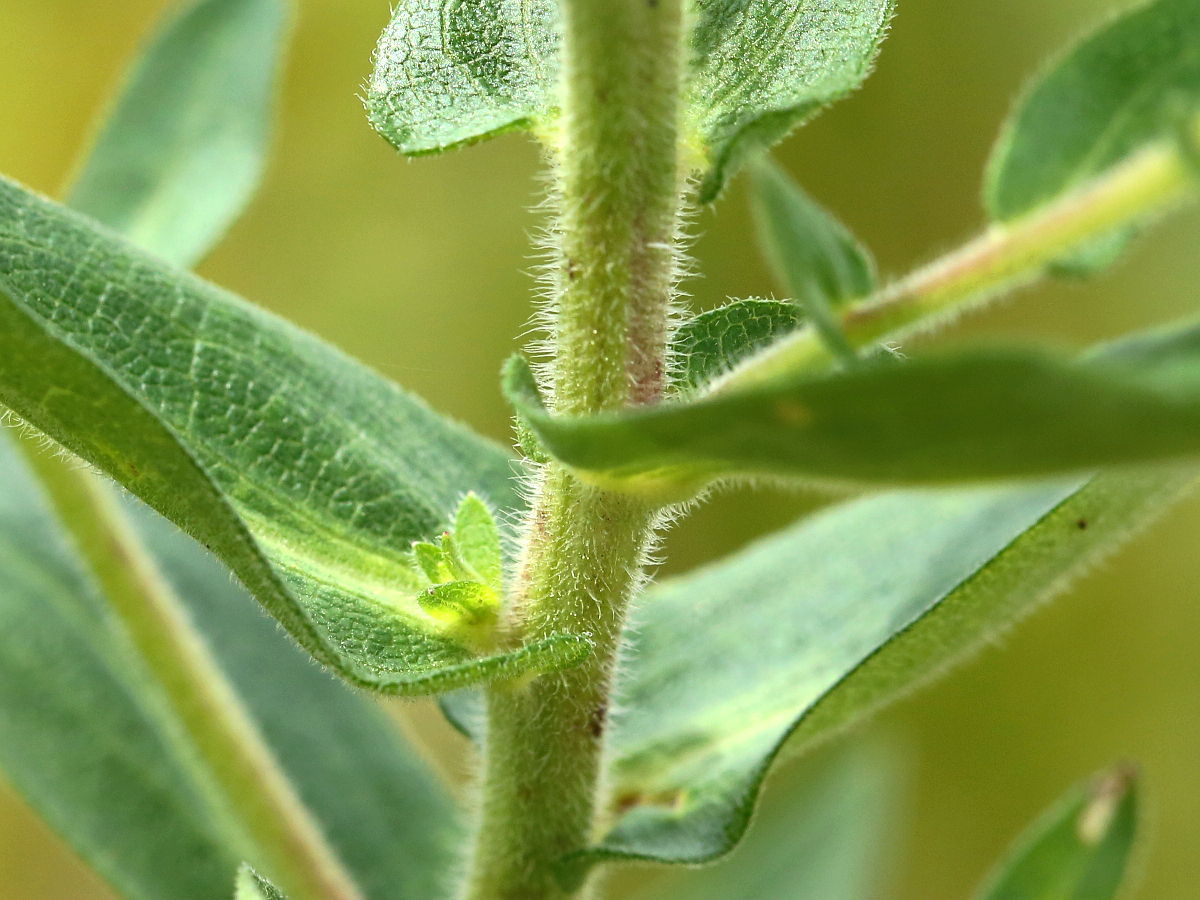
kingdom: Plantae
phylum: Tracheophyta
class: Magnoliopsida
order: Asterales
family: Asteraceae
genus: Symphyotrichum
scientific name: Symphyotrichum novae-angliae
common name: Michaelmas daisy
